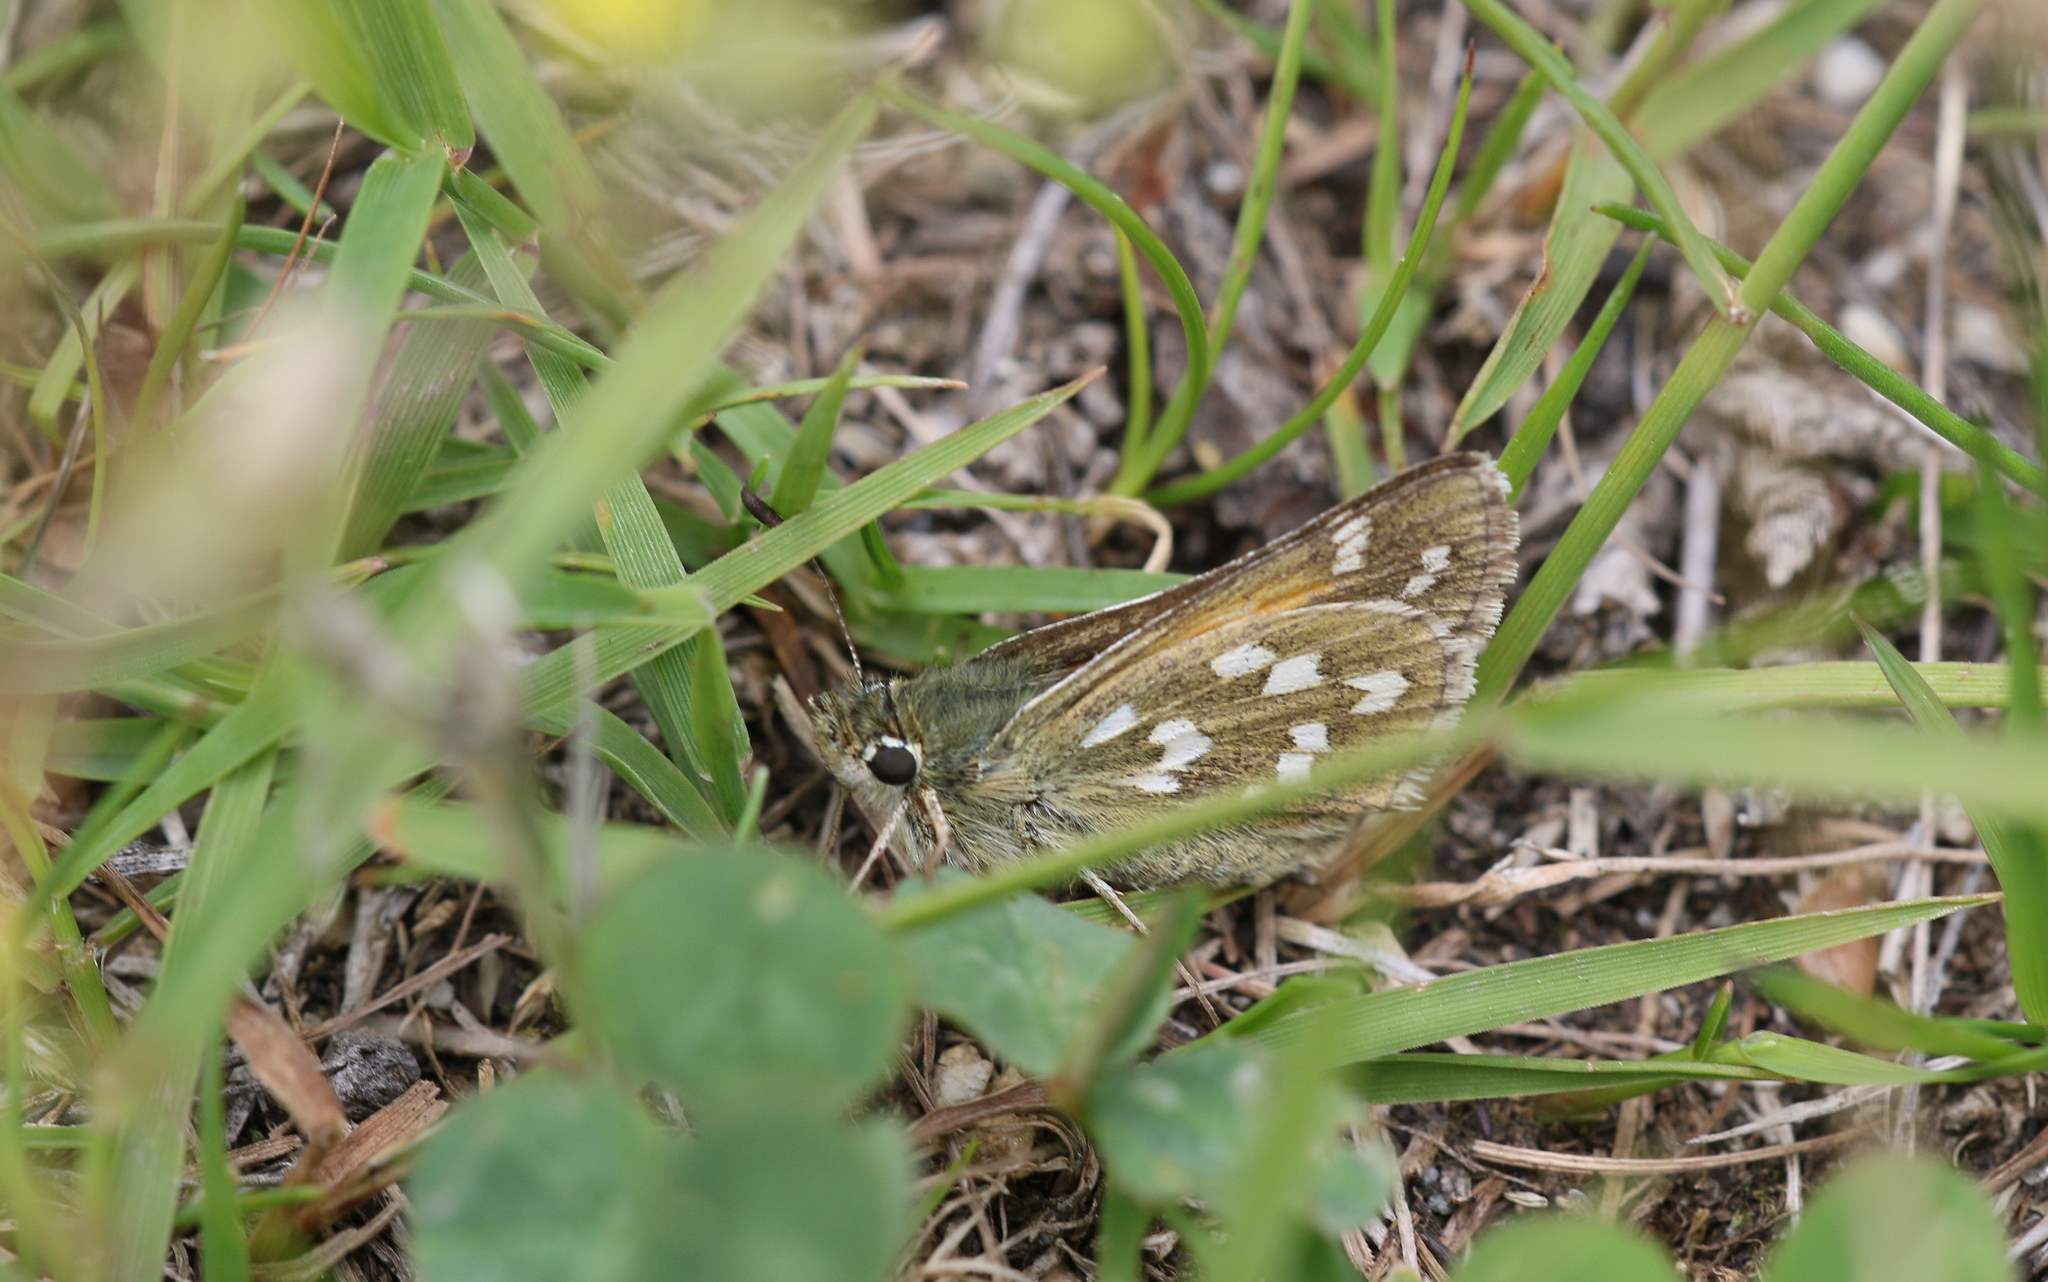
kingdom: Animalia
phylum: Arthropoda
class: Insecta
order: Lepidoptera
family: Hesperiidae
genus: Hesperia
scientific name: Hesperia comma
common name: Common branded skipper
